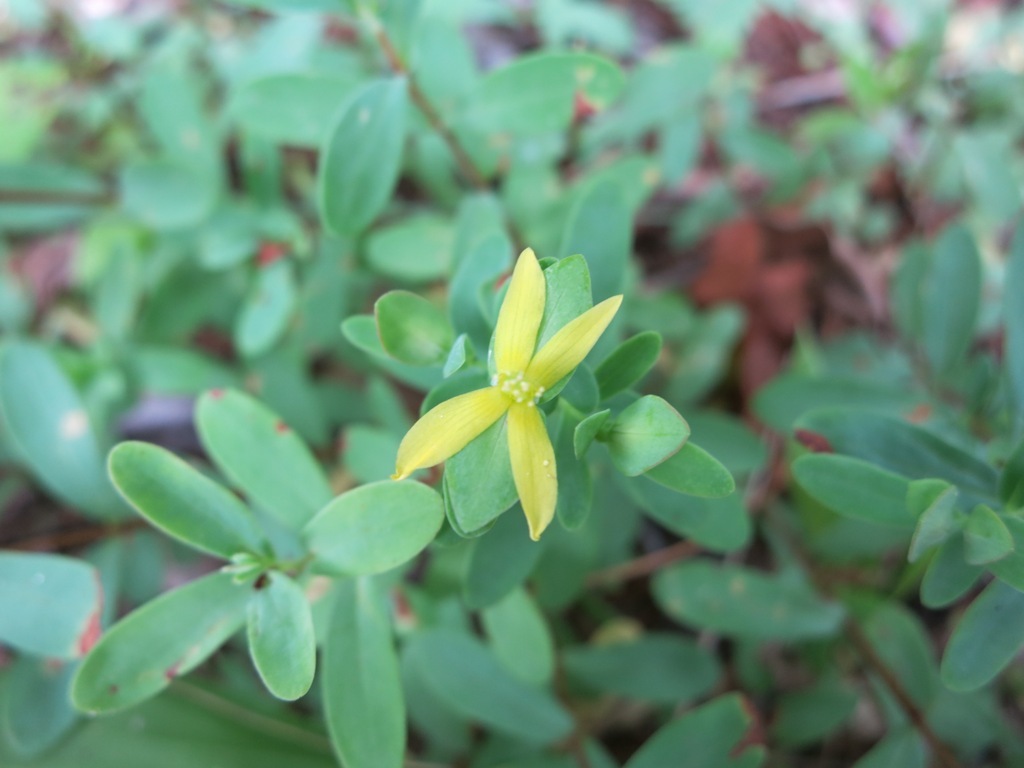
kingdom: Plantae
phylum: Tracheophyta
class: Magnoliopsida
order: Malpighiales
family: Hypericaceae
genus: Hypericum
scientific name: Hypericum hypericoides
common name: St. andrew's cross
